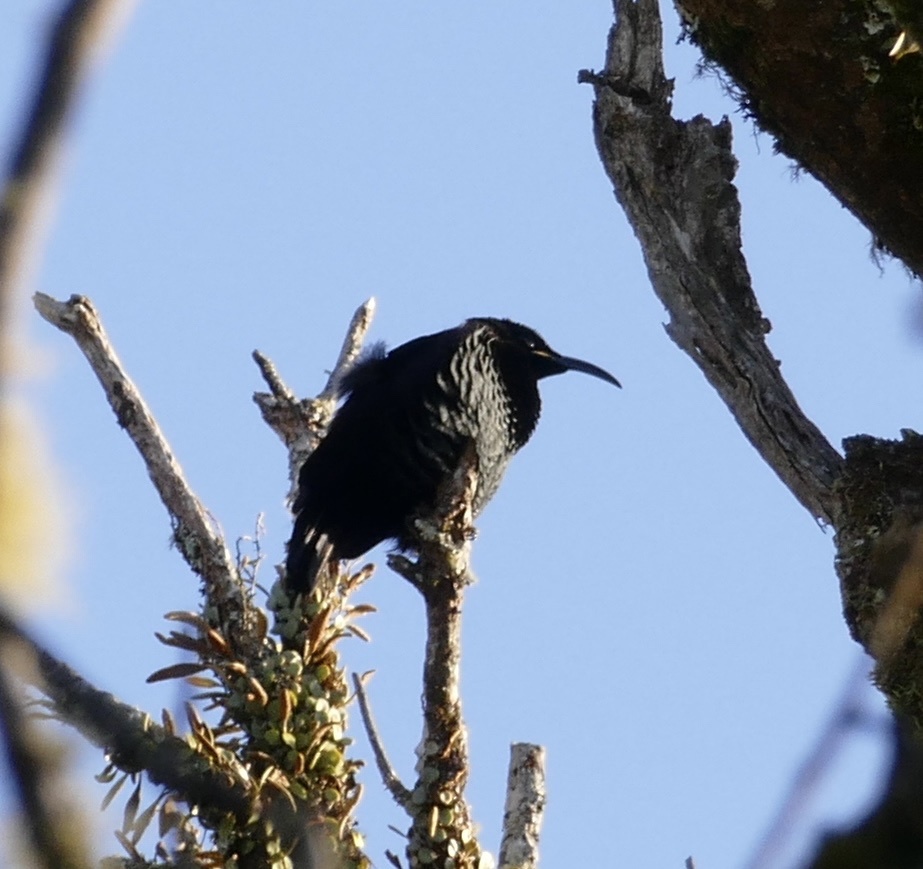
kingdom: Animalia
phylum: Chordata
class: Aves
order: Passeriformes
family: Paradisaeidae
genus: Ptiloris
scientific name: Ptiloris paradiseus
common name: Paradise riflebird
